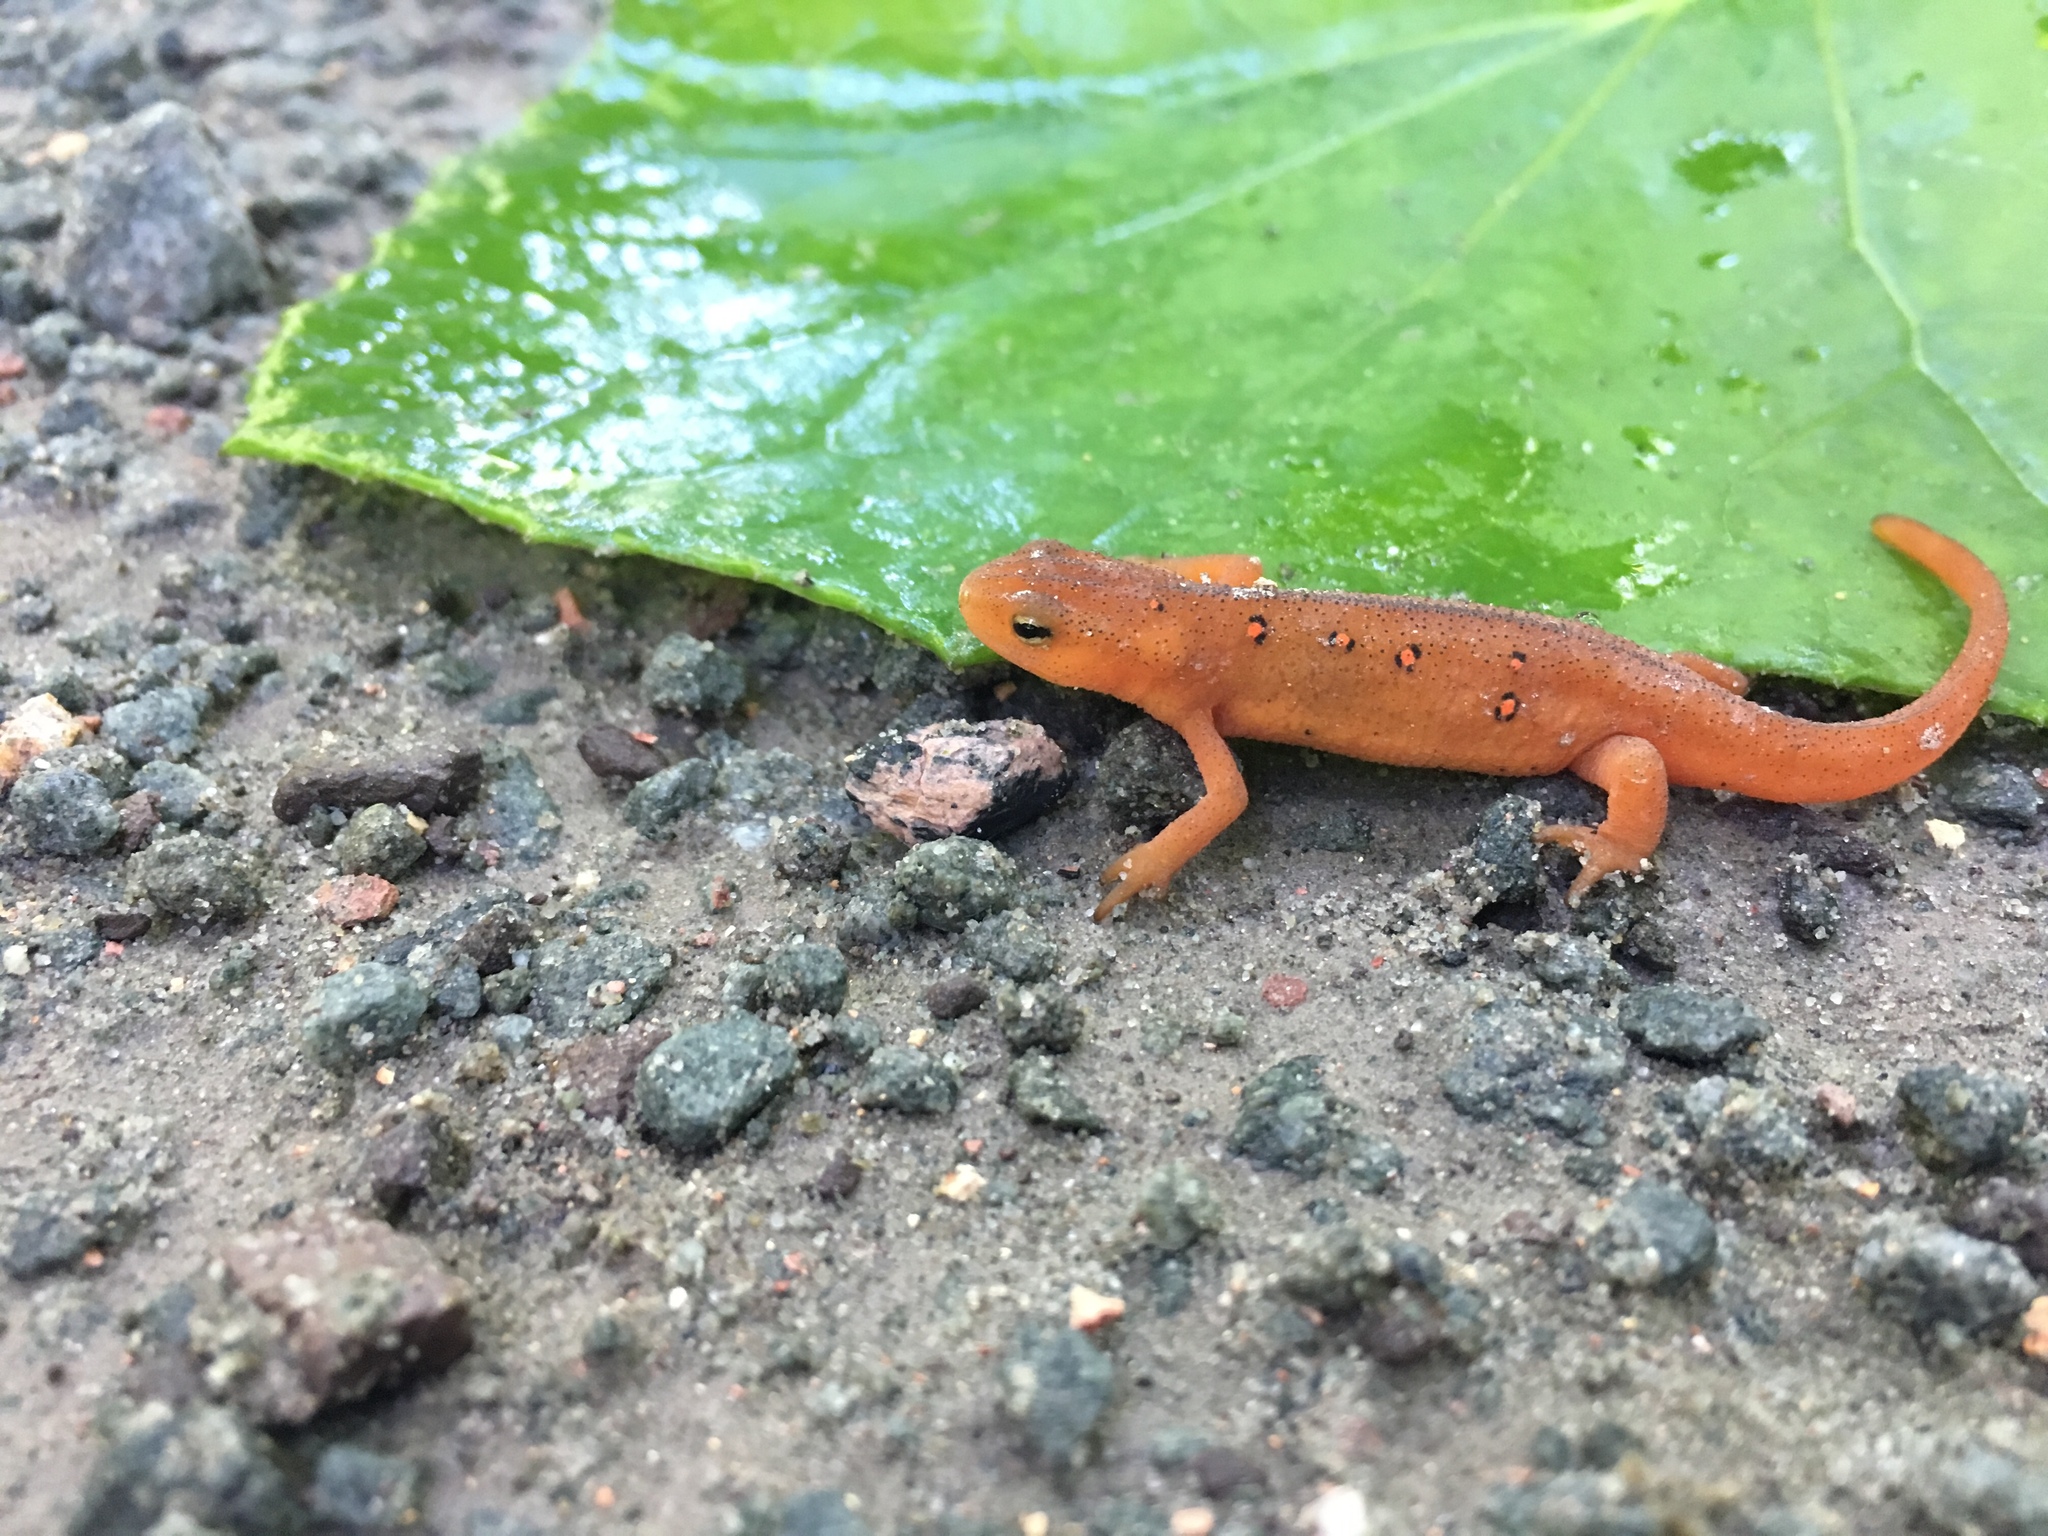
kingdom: Animalia
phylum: Chordata
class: Amphibia
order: Caudata
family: Salamandridae
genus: Notophthalmus
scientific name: Notophthalmus viridescens
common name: Eastern newt
